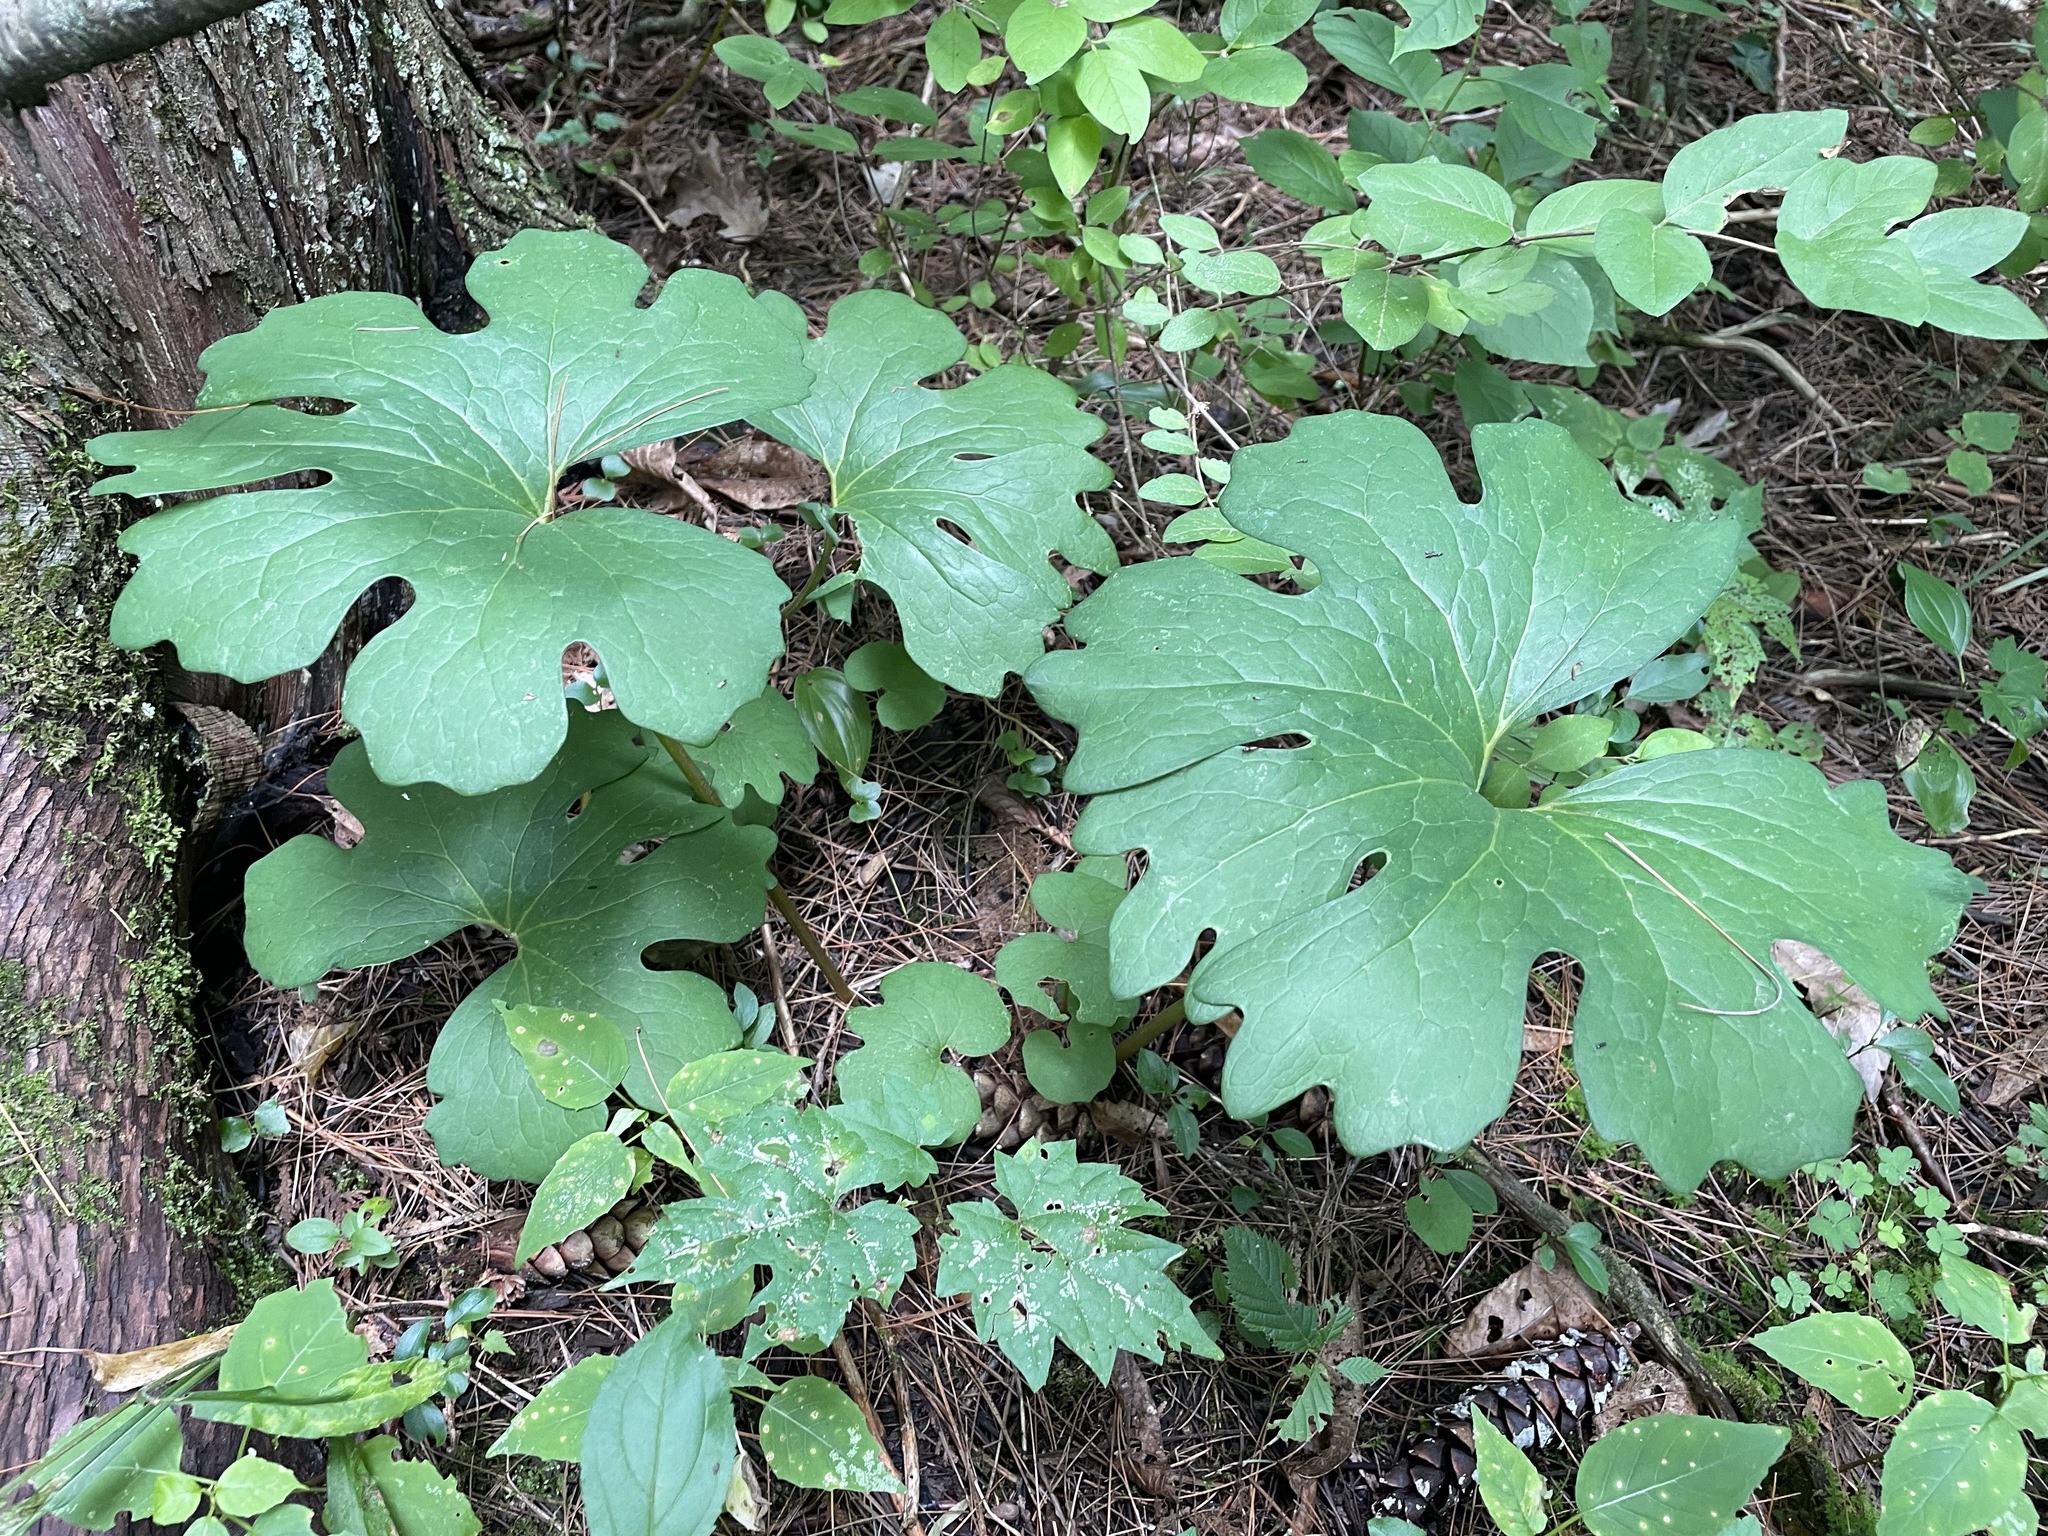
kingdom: Plantae
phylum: Tracheophyta
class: Magnoliopsida
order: Ranunculales
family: Papaveraceae
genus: Sanguinaria
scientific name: Sanguinaria canadensis
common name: Bloodroot
